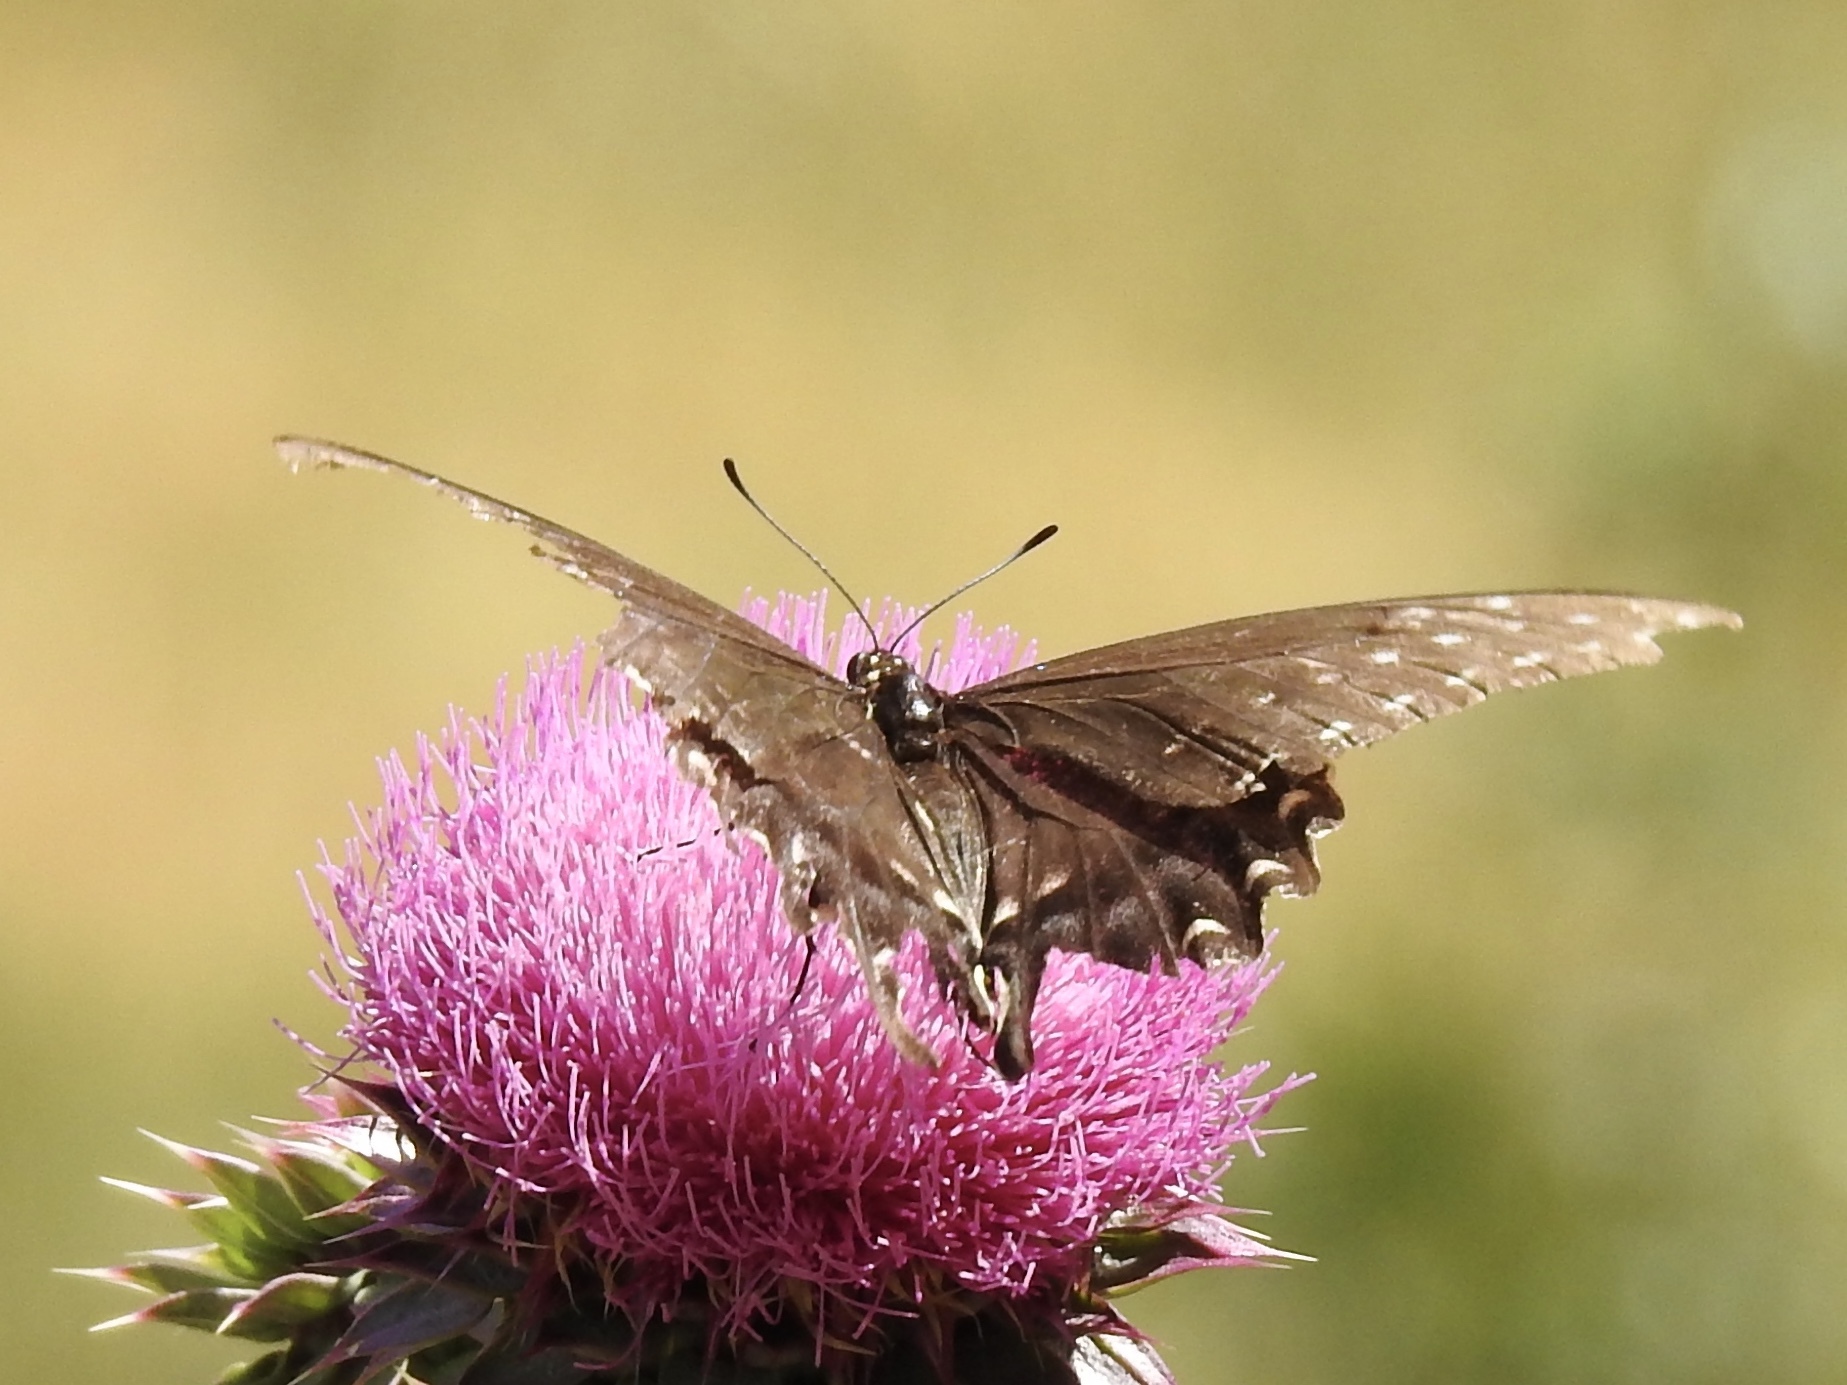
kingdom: Animalia
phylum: Arthropoda
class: Insecta
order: Lepidoptera
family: Papilionidae
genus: Papilio
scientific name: Papilio polyxenes
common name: Black swallowtail
